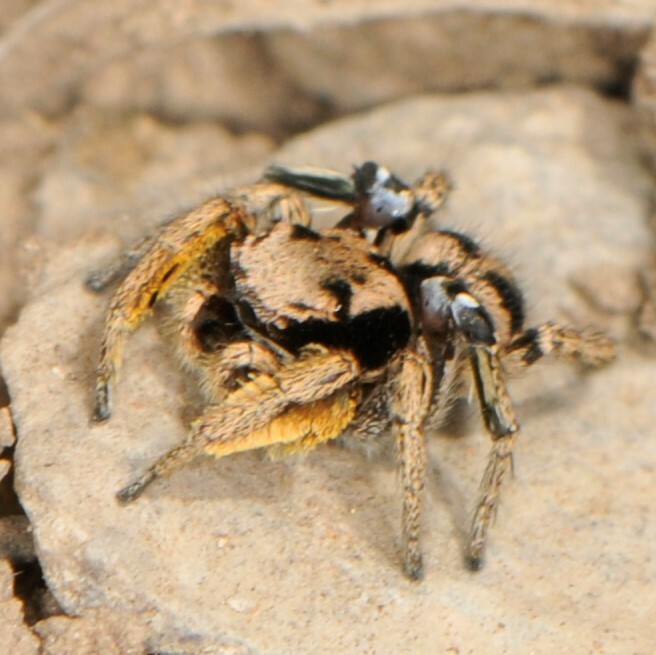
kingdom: Animalia
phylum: Arthropoda
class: Arachnida
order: Araneae
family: Salticidae
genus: Habronattus
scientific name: Habronattus festus
